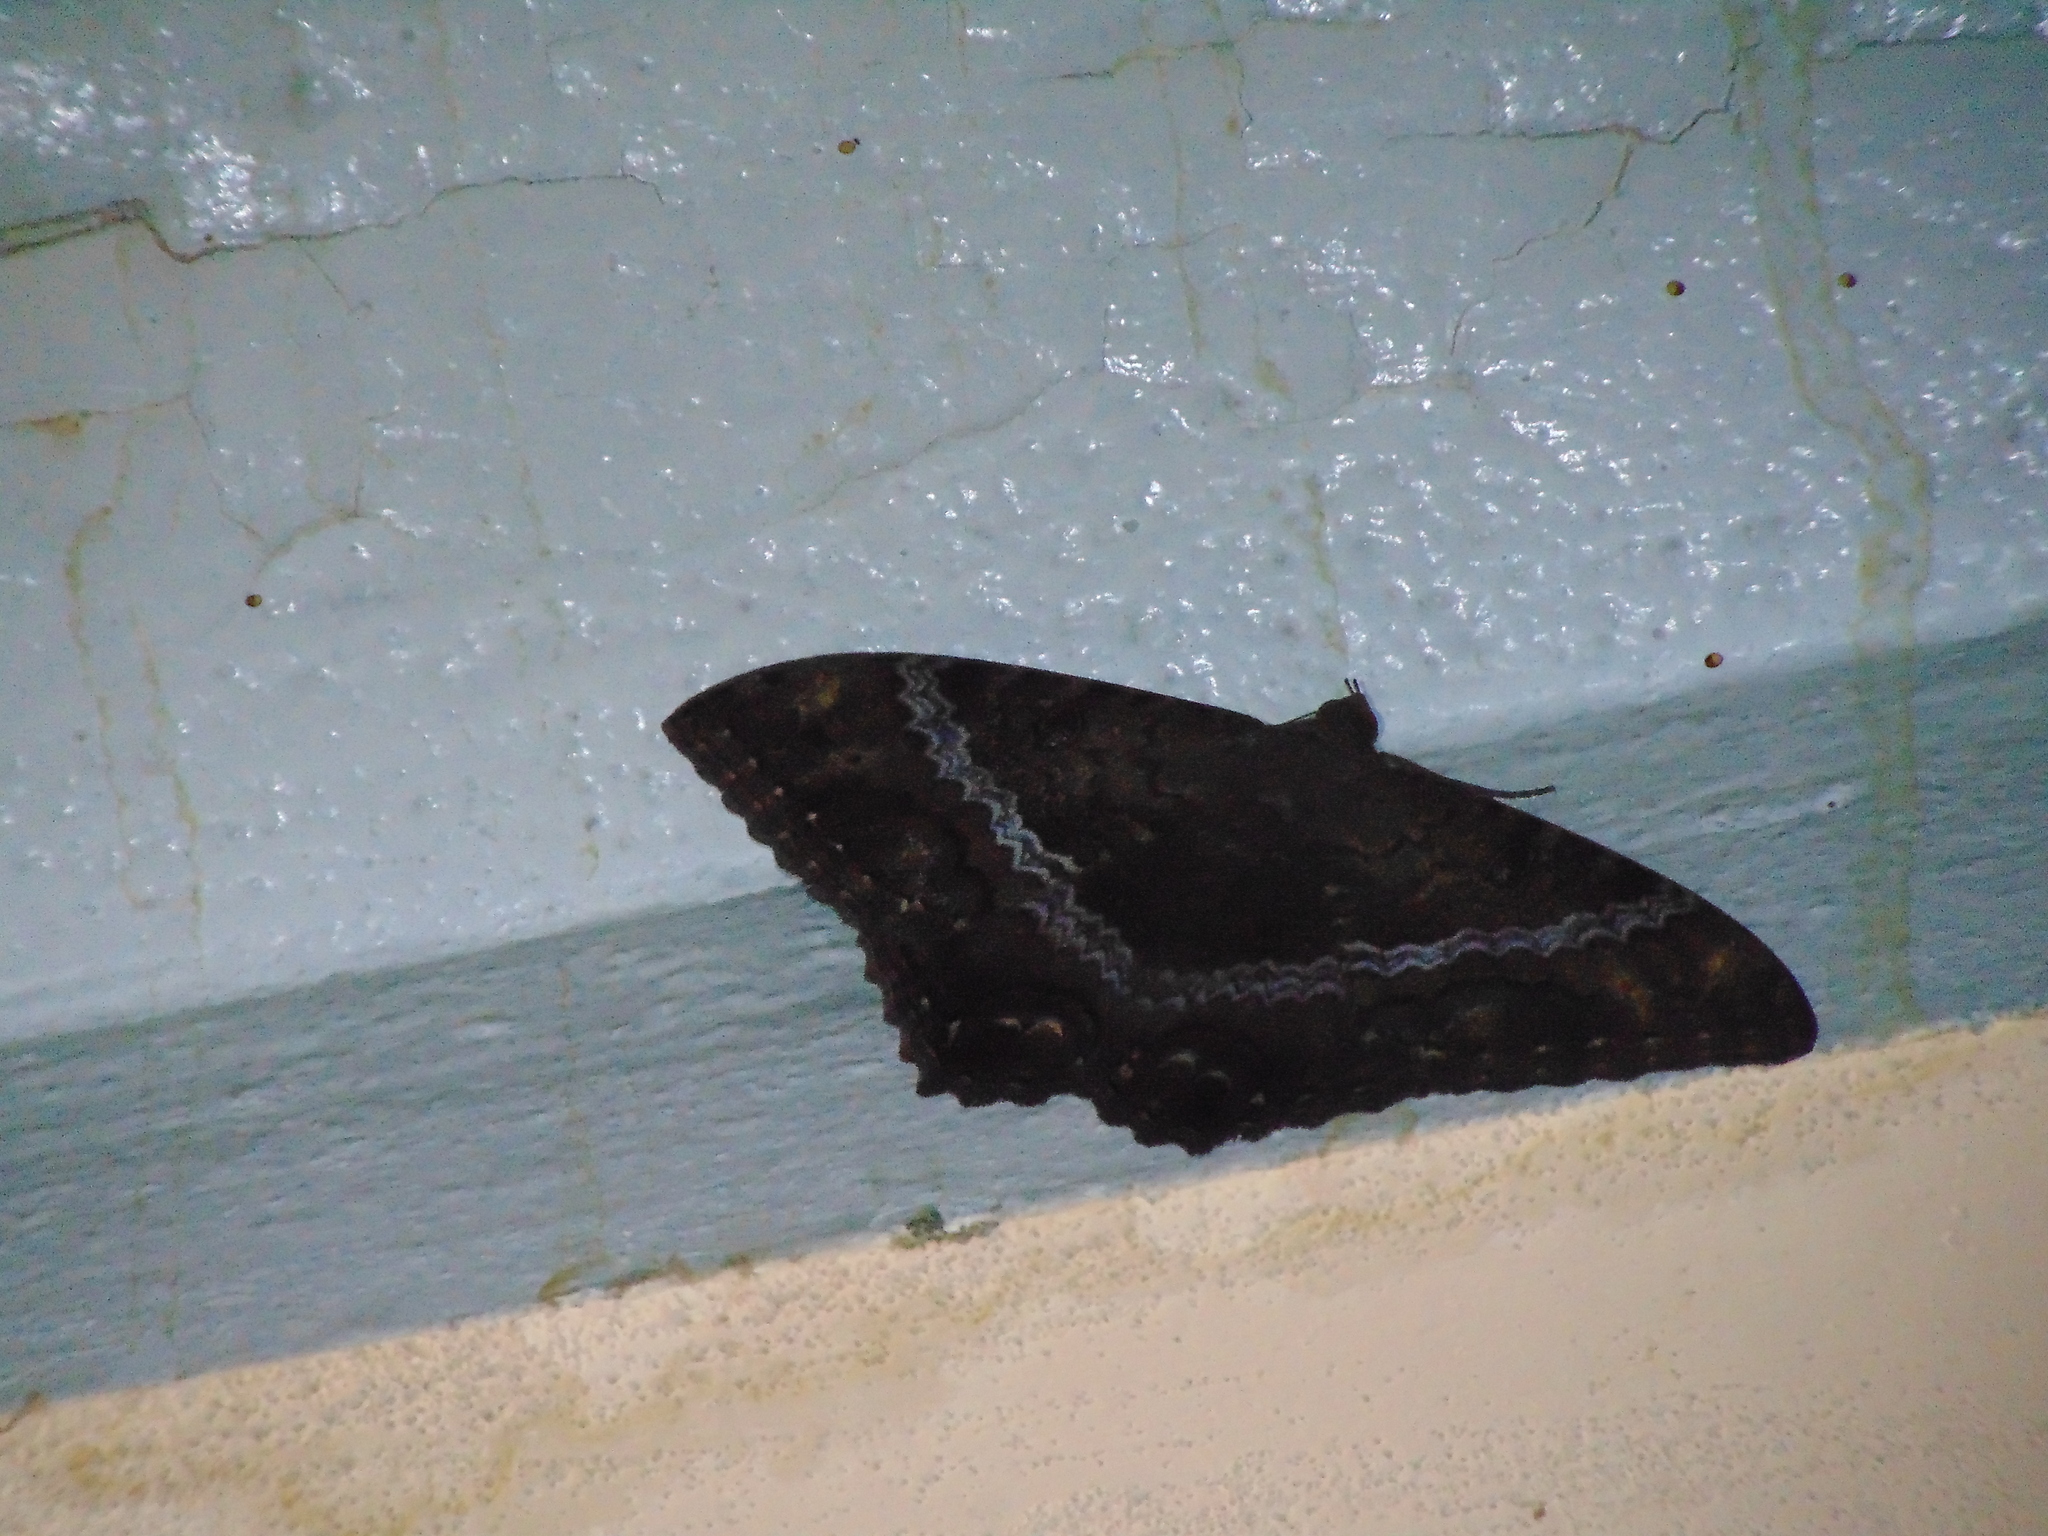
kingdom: Animalia
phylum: Arthropoda
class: Insecta
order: Lepidoptera
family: Erebidae
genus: Ascalapha
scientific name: Ascalapha odorata
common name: Black witch
